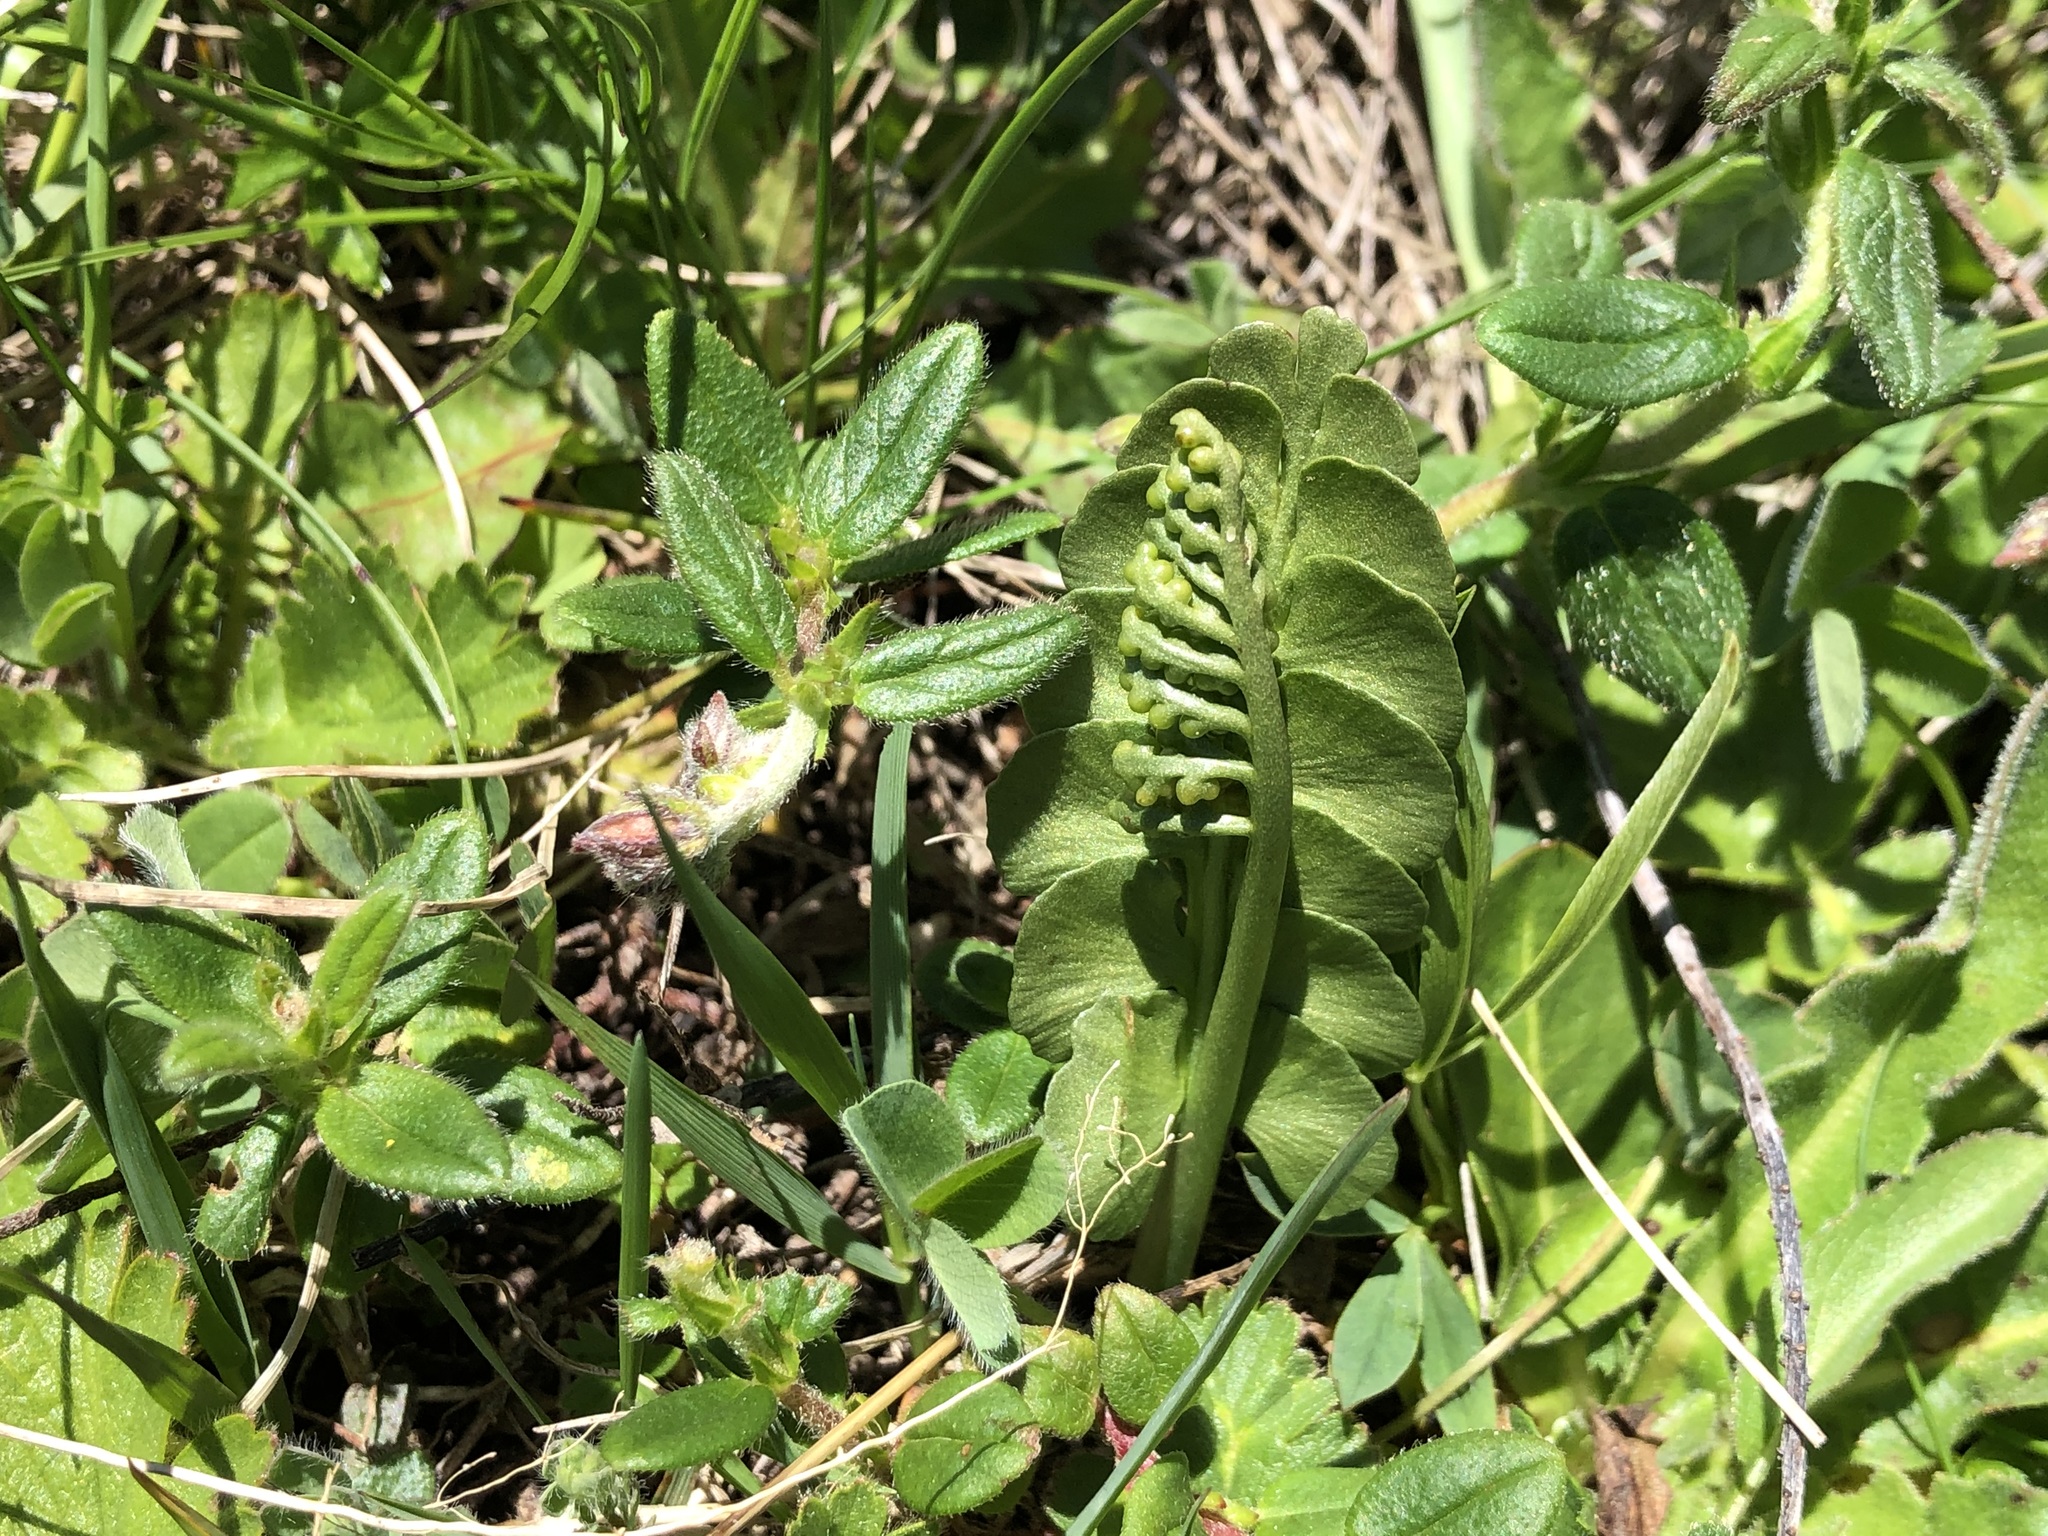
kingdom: Plantae
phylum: Tracheophyta
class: Polypodiopsida
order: Ophioglossales
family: Ophioglossaceae
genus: Botrychium
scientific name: Botrychium lunaria
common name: Moonwort
